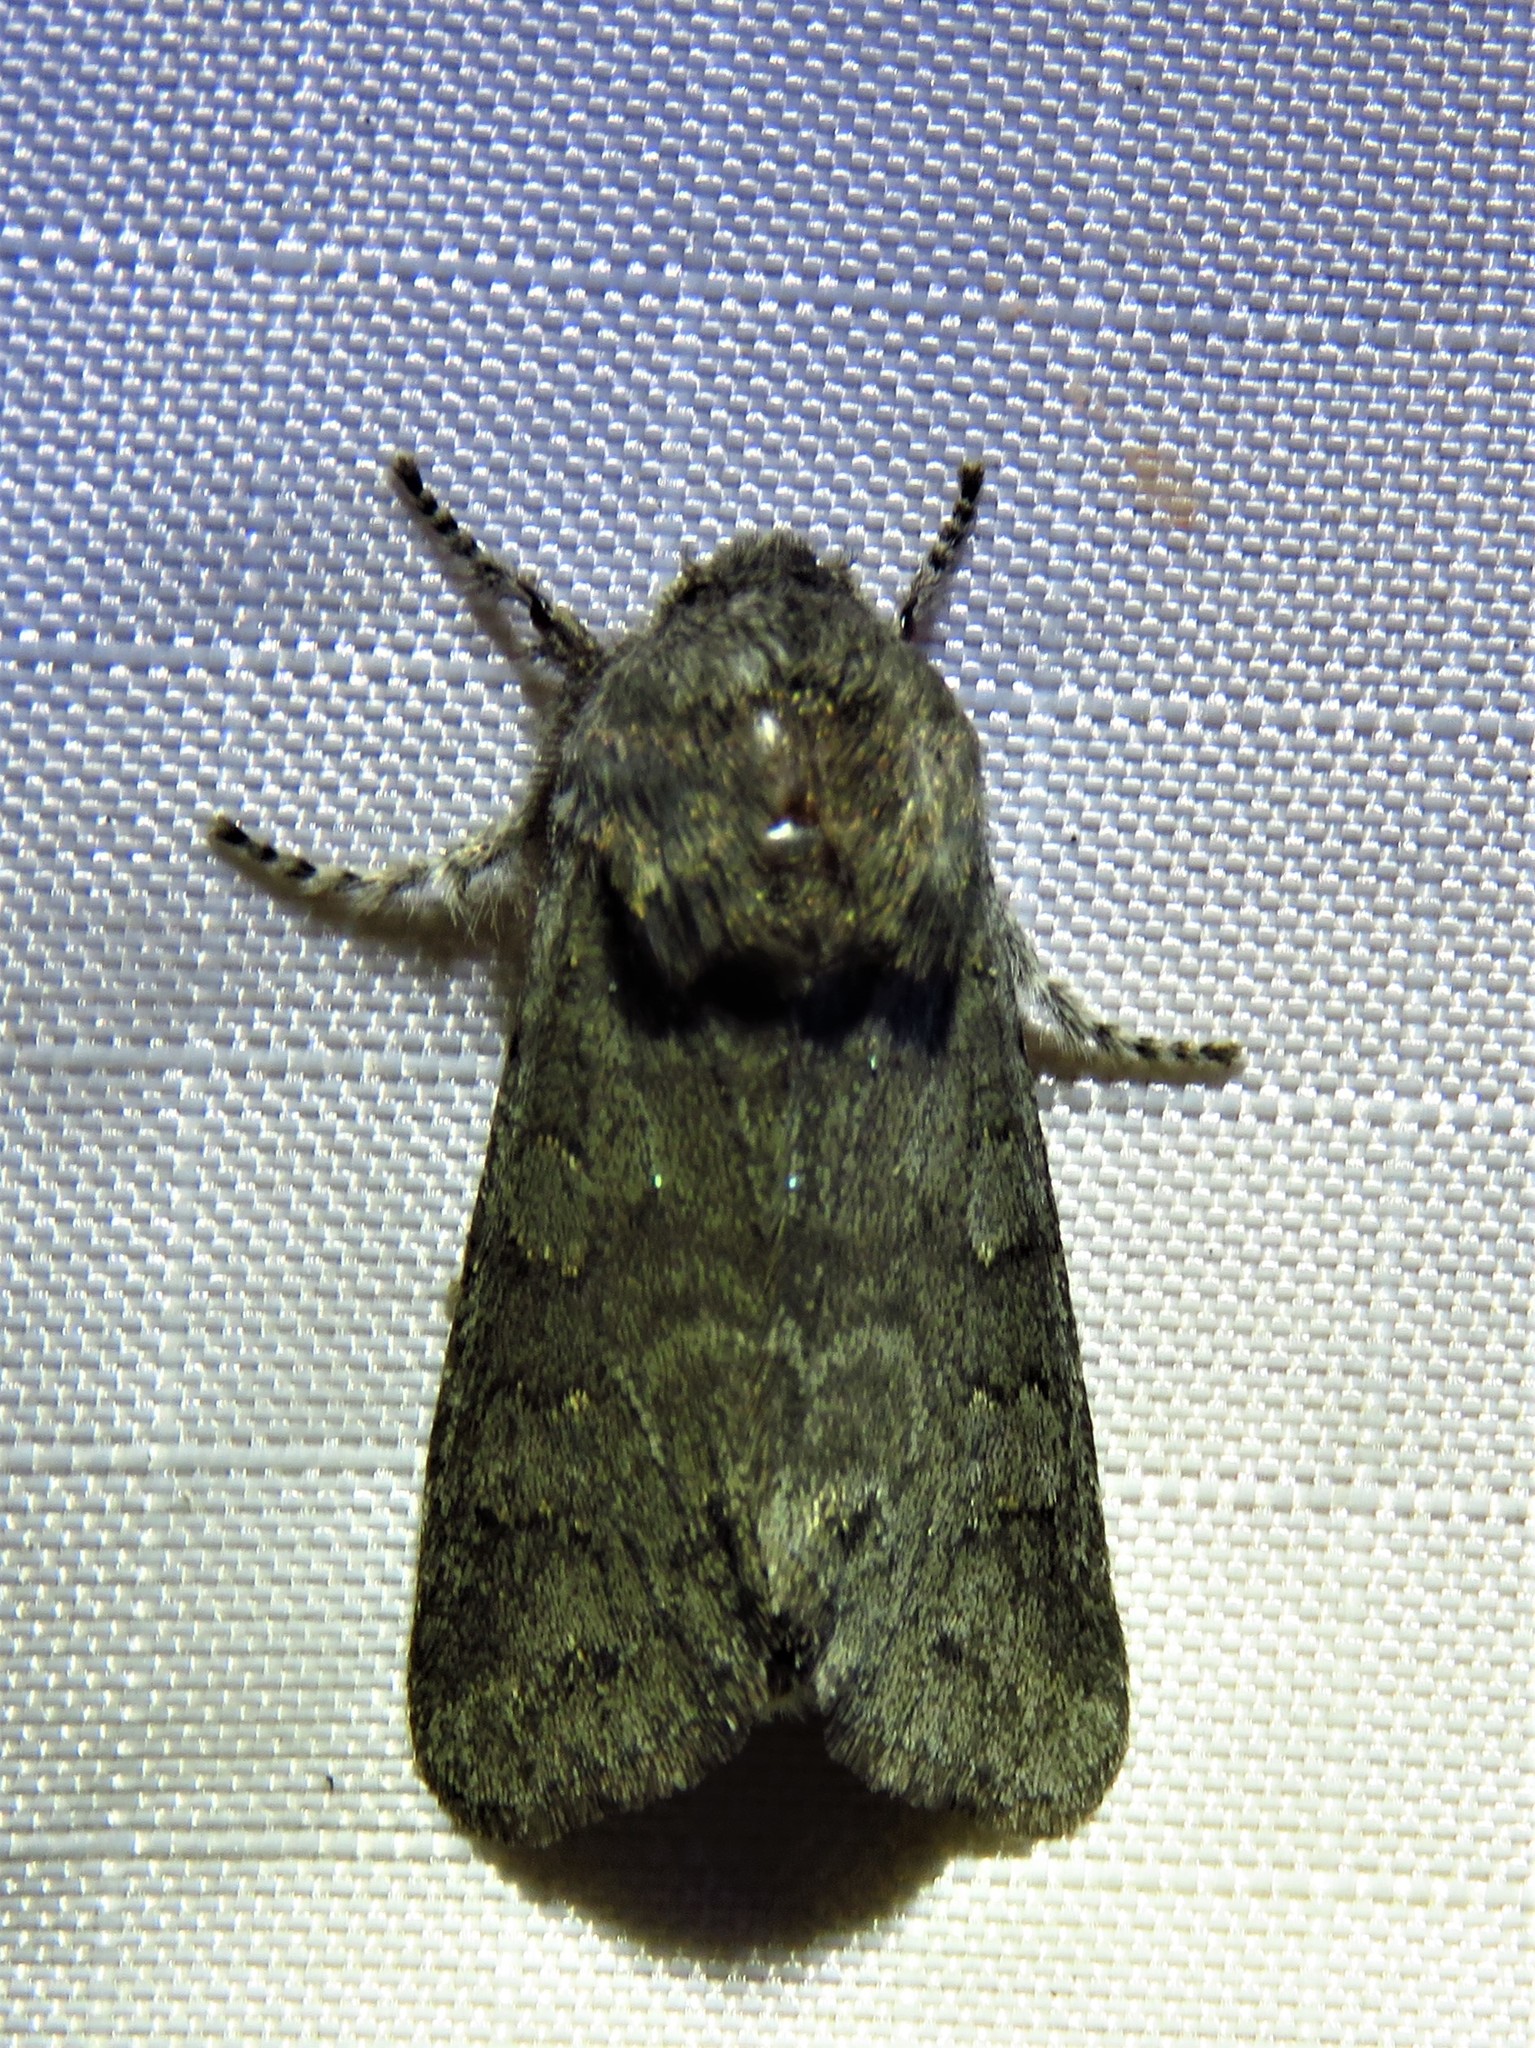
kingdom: Animalia
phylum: Arthropoda
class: Insecta
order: Lepidoptera
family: Noctuidae
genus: Psaphida
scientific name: Psaphida rolandi
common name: Roland's sallow
